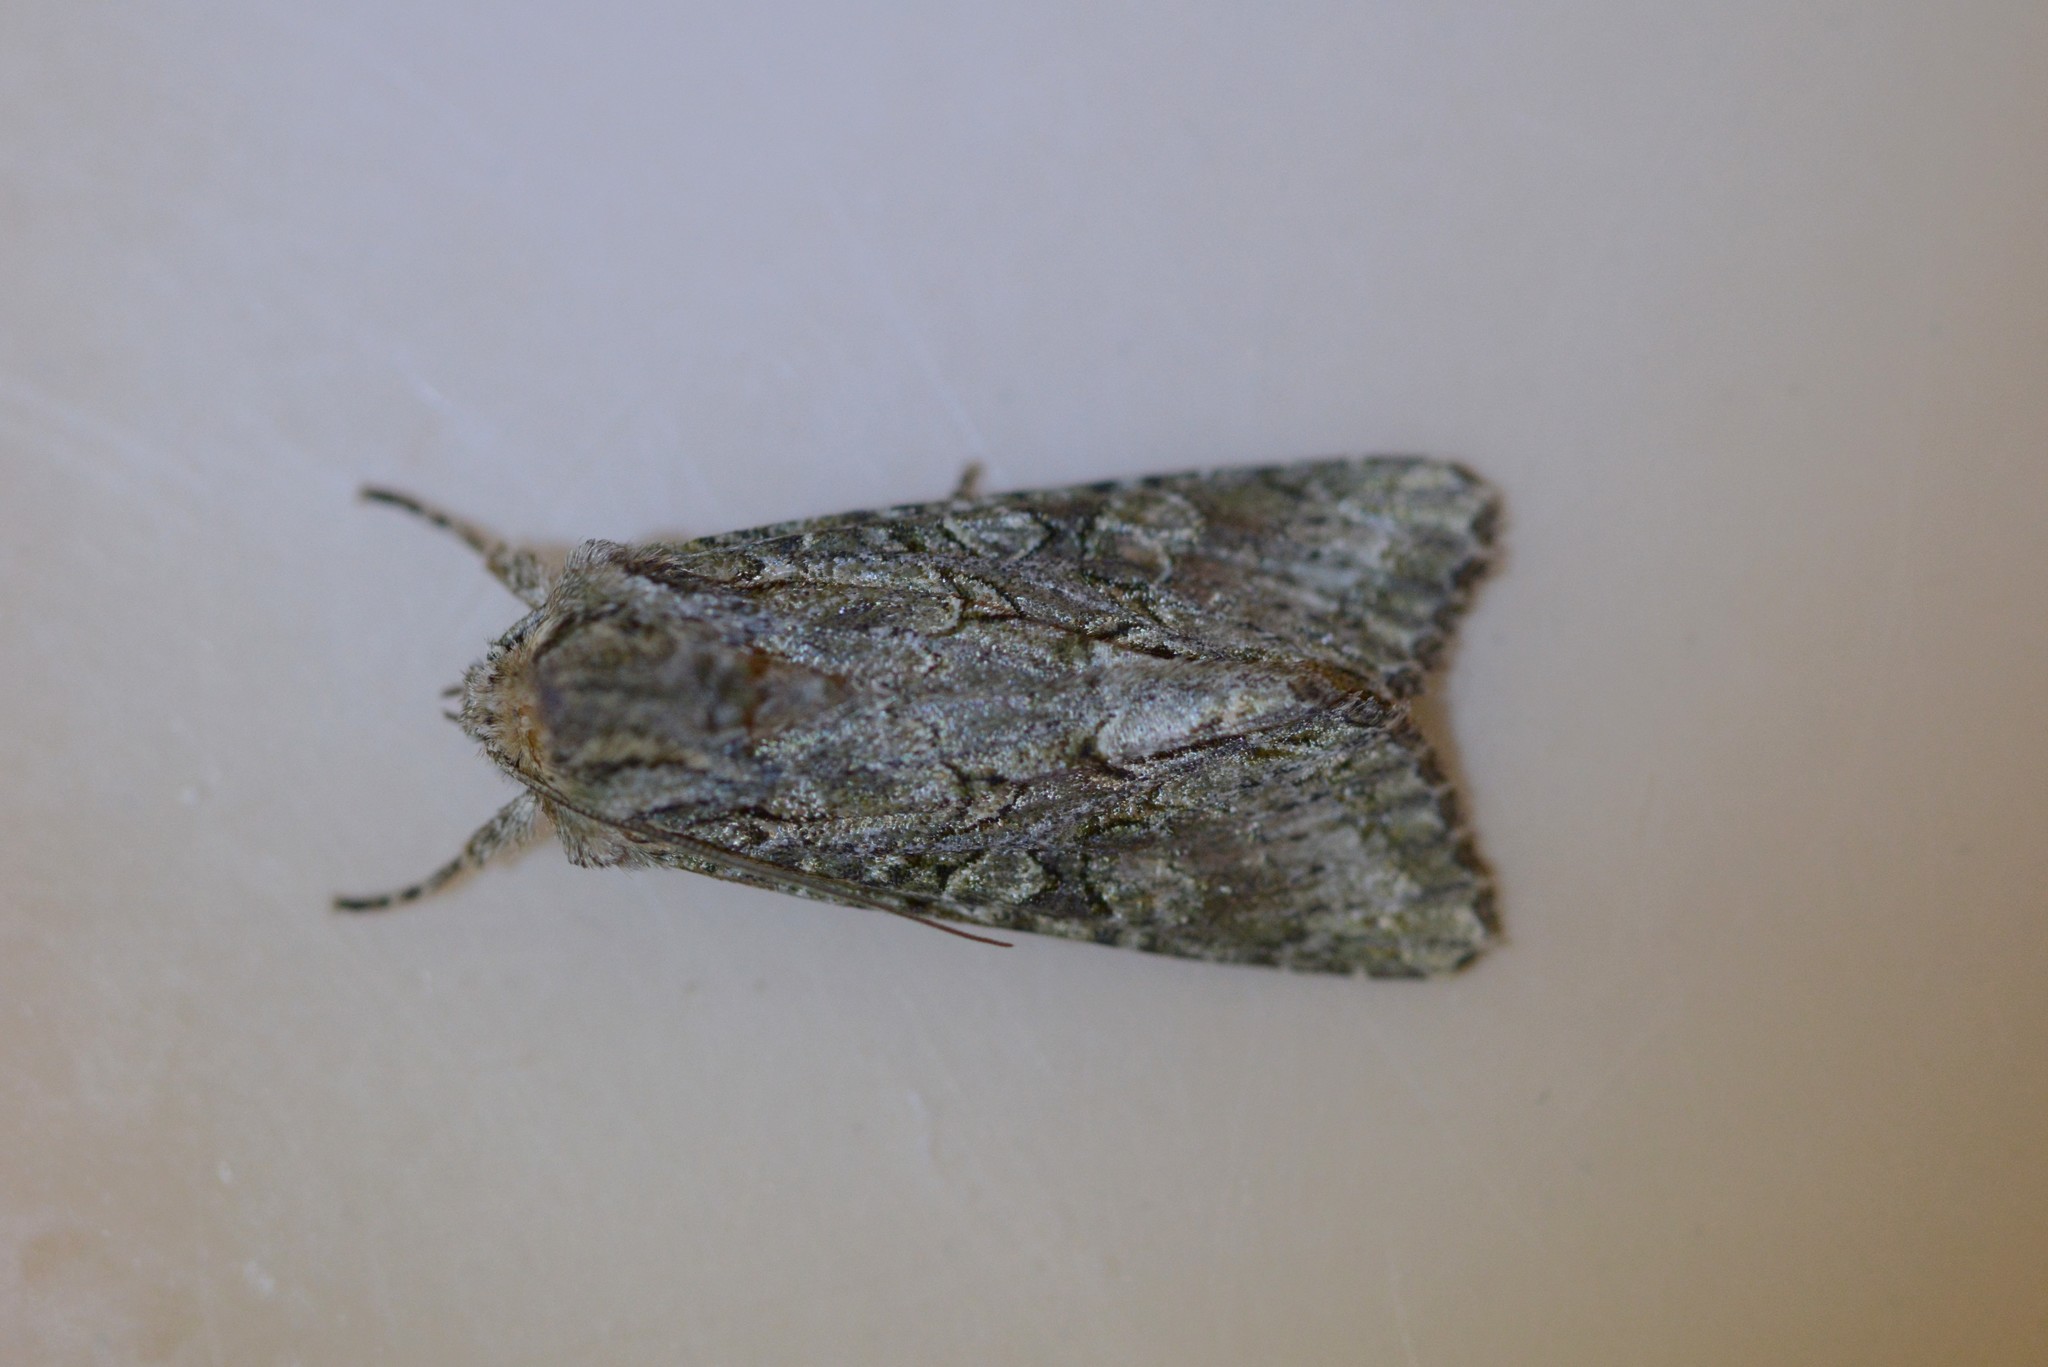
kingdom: Animalia
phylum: Arthropoda
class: Insecta
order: Lepidoptera
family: Noctuidae
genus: Ichneutica
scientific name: Ichneutica mutans
